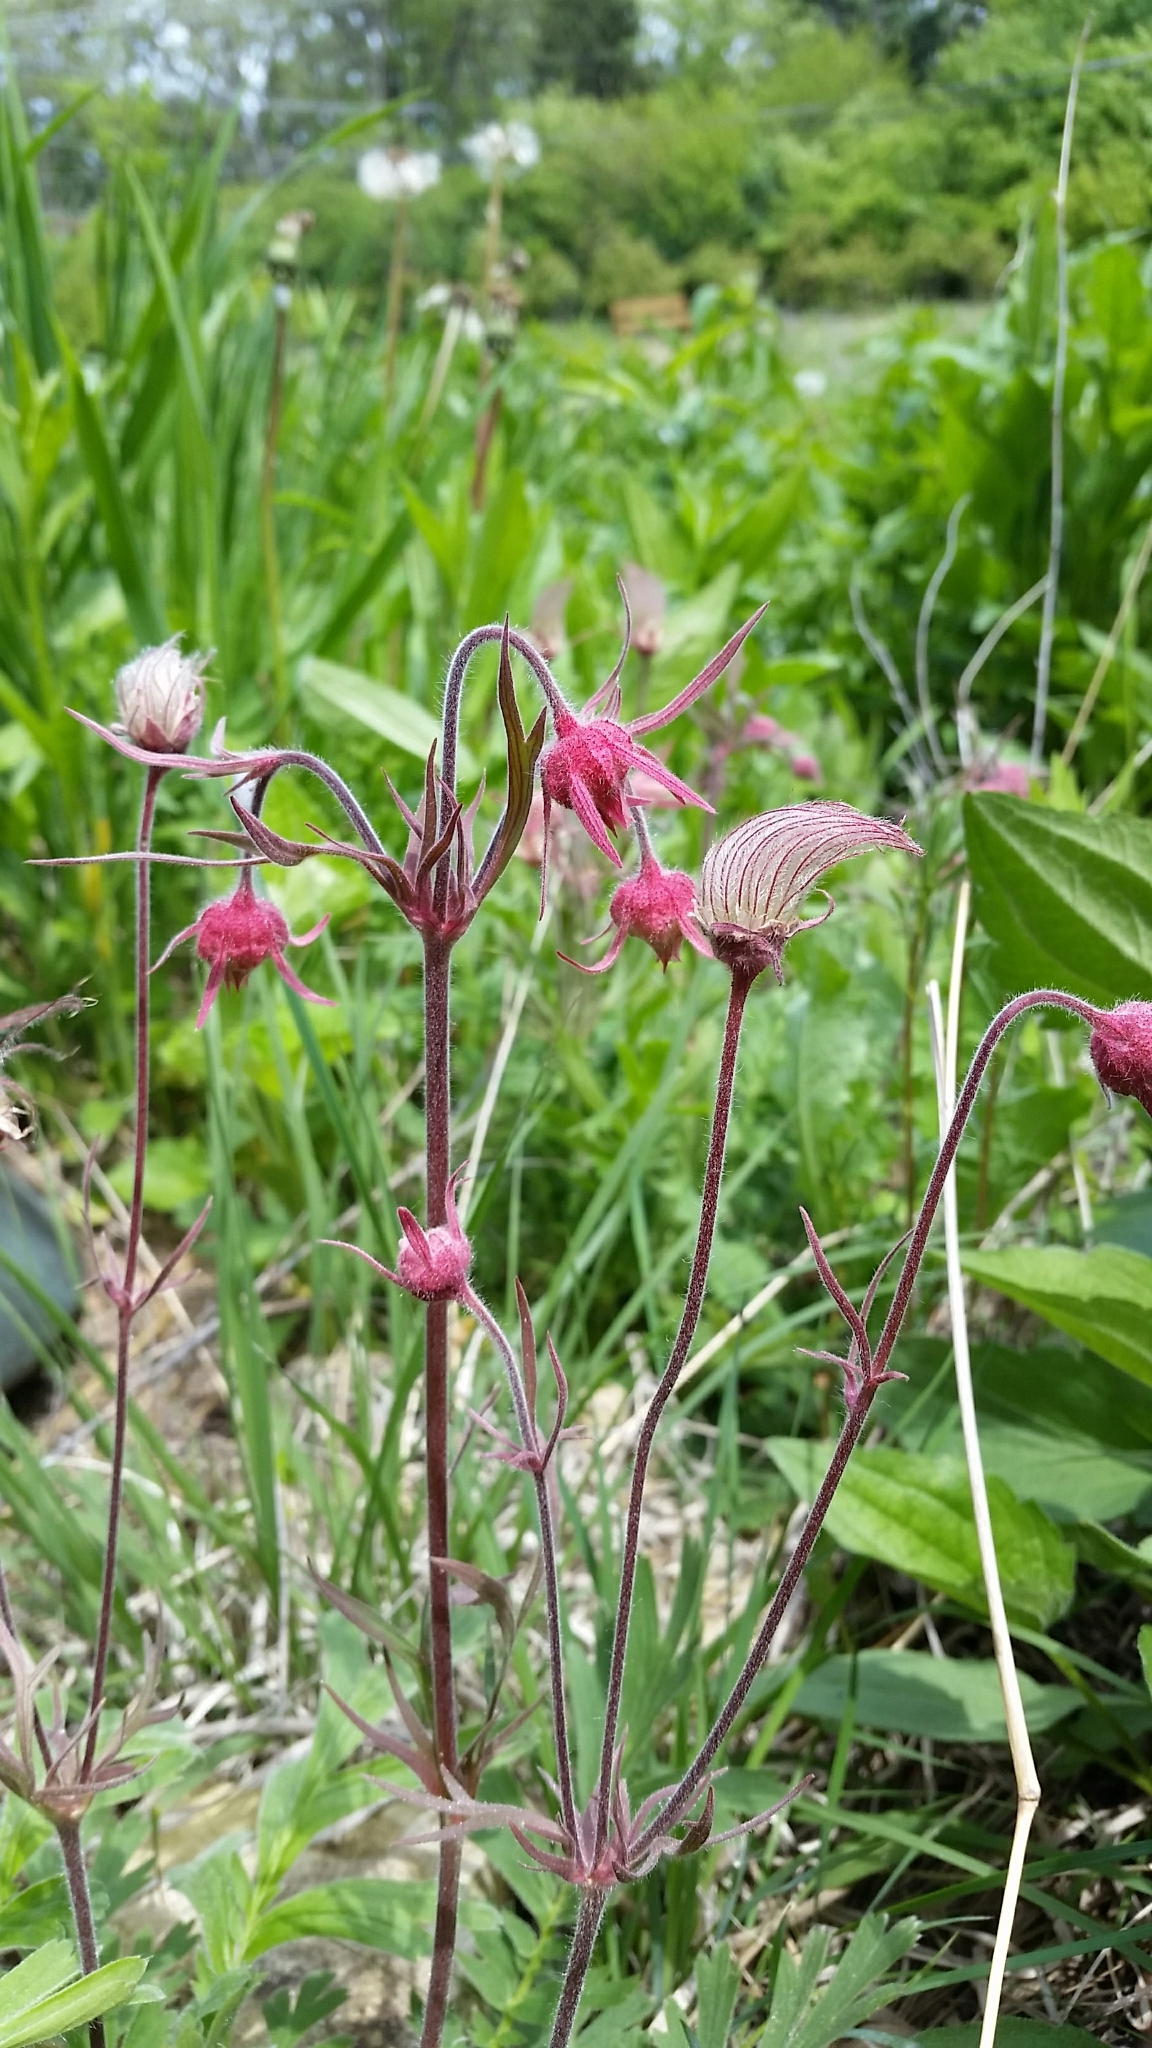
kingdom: Plantae
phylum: Tracheophyta
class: Magnoliopsida
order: Rosales
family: Rosaceae
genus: Geum
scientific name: Geum triflorum
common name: Old man's whiskers
